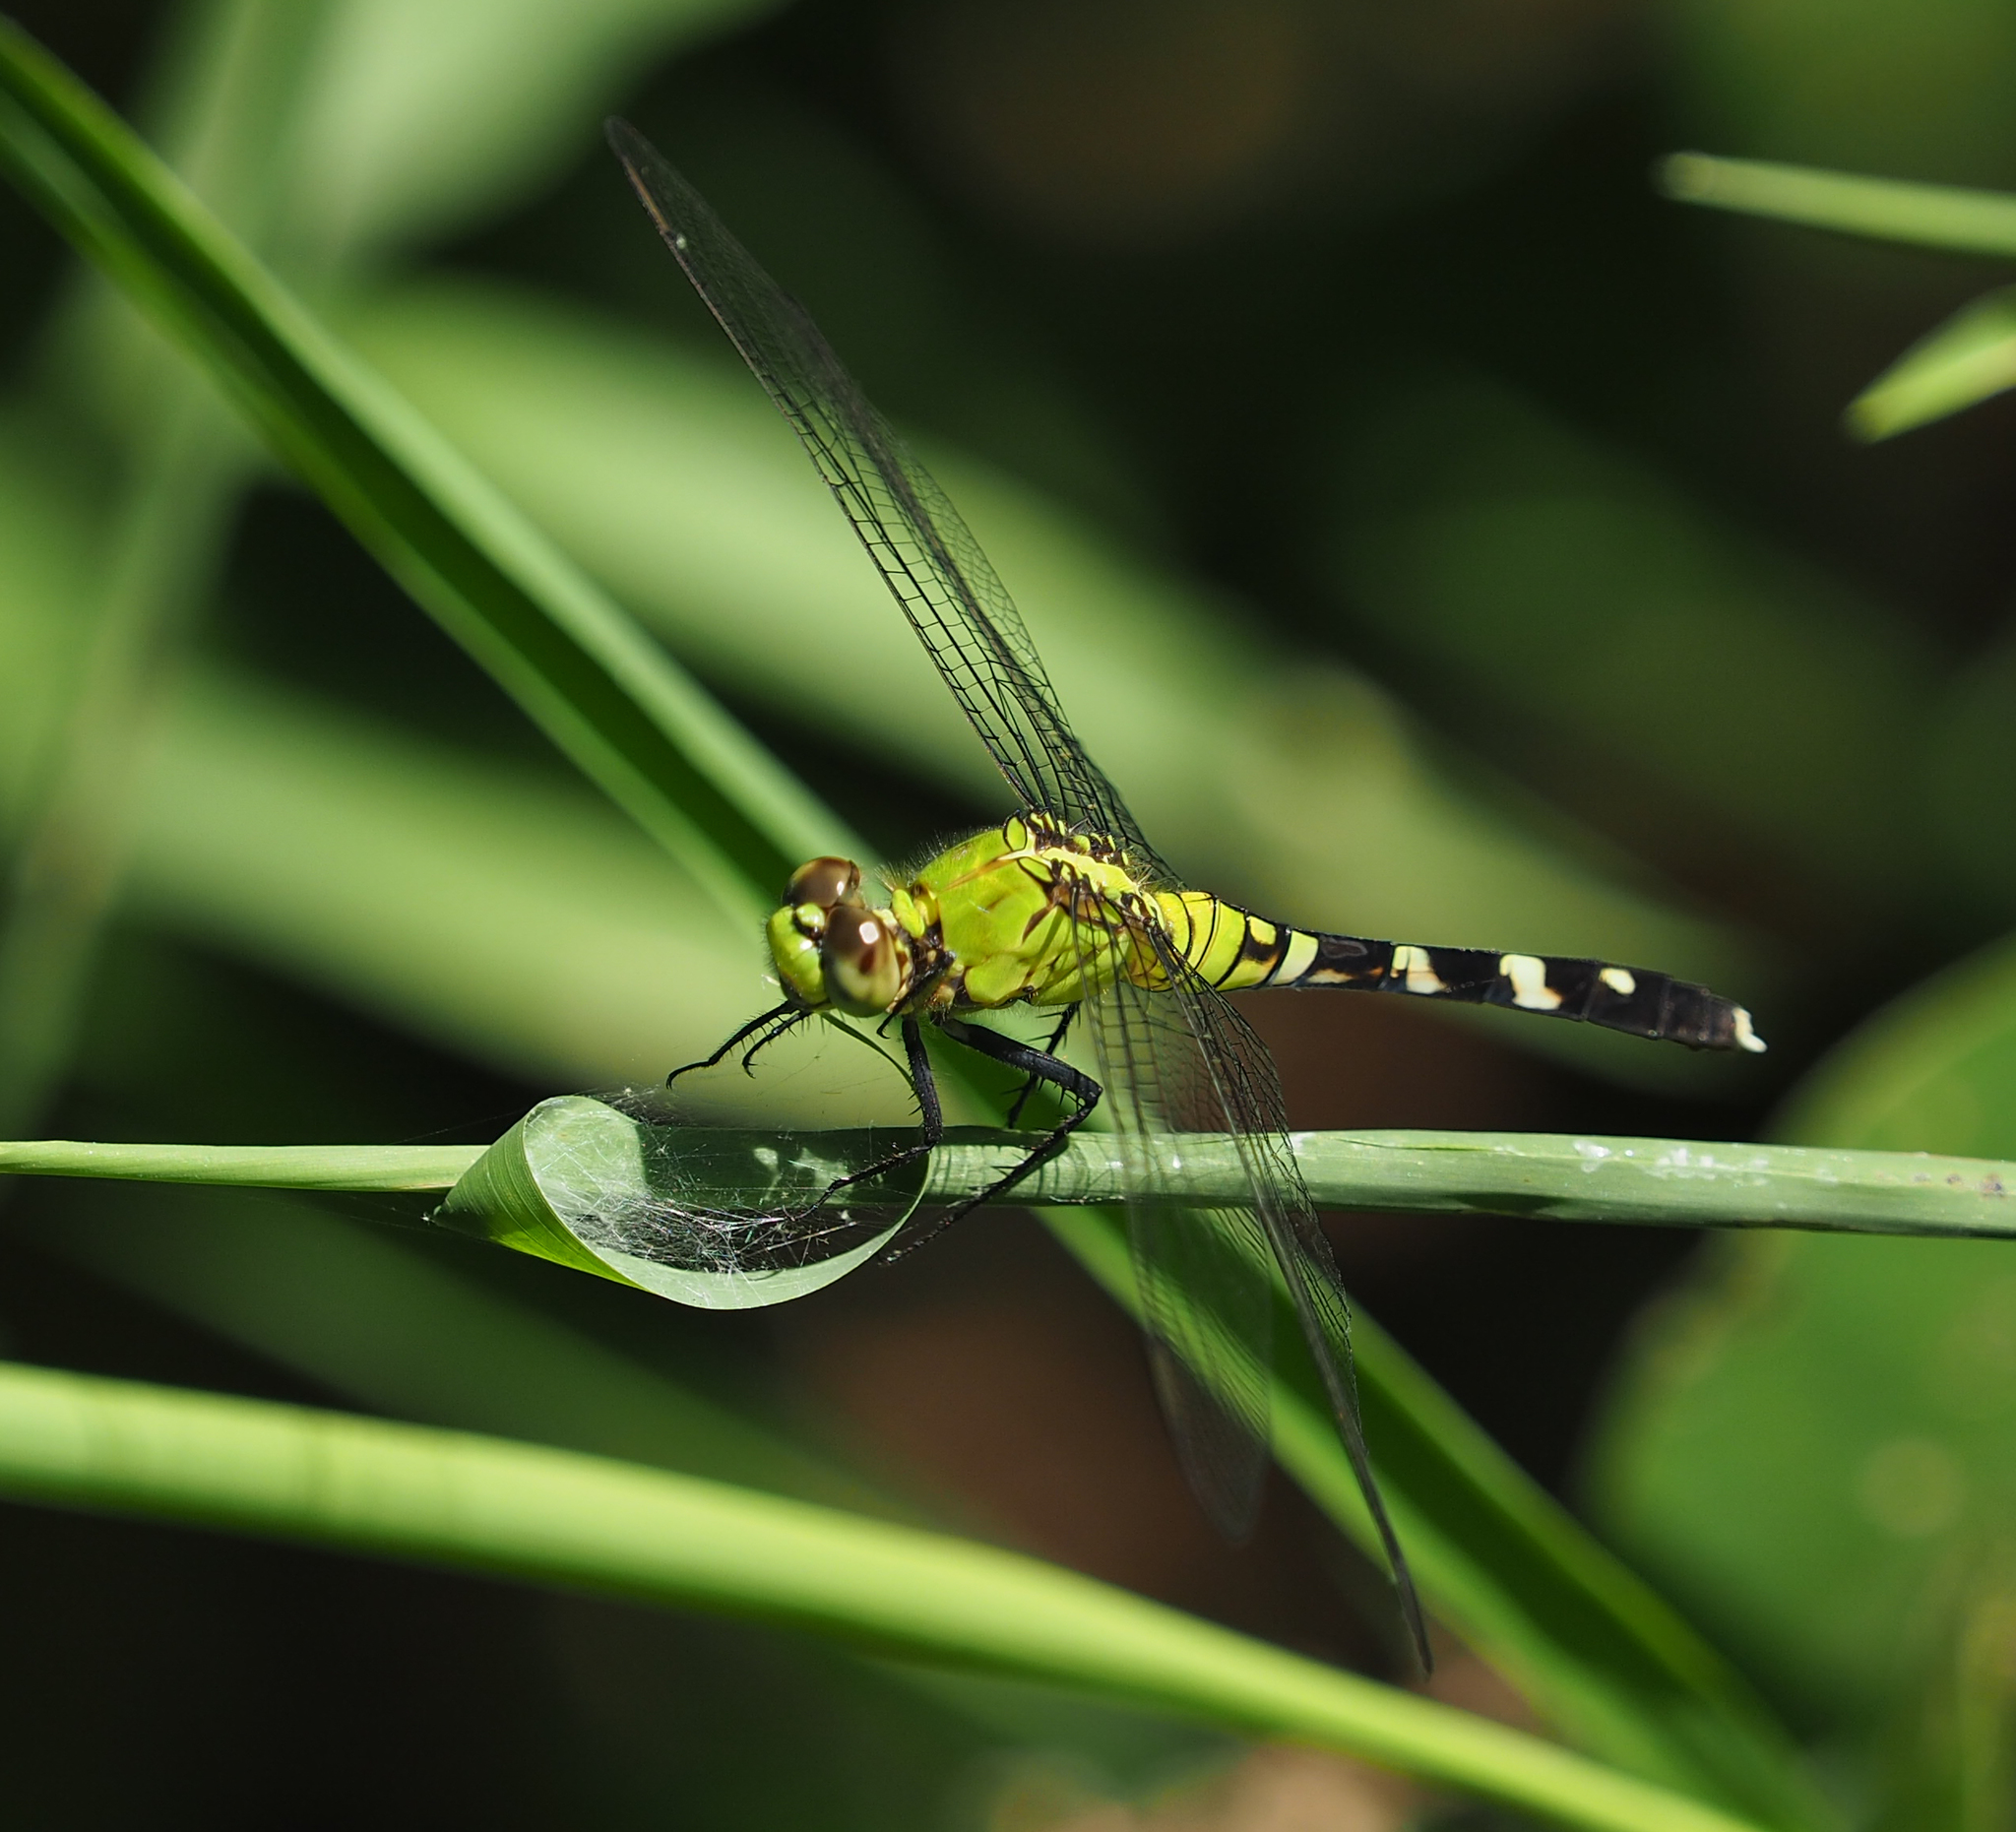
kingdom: Animalia
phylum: Arthropoda
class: Insecta
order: Odonata
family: Libellulidae
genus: Erythemis
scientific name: Erythemis simplicicollis
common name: Eastern pondhawk
